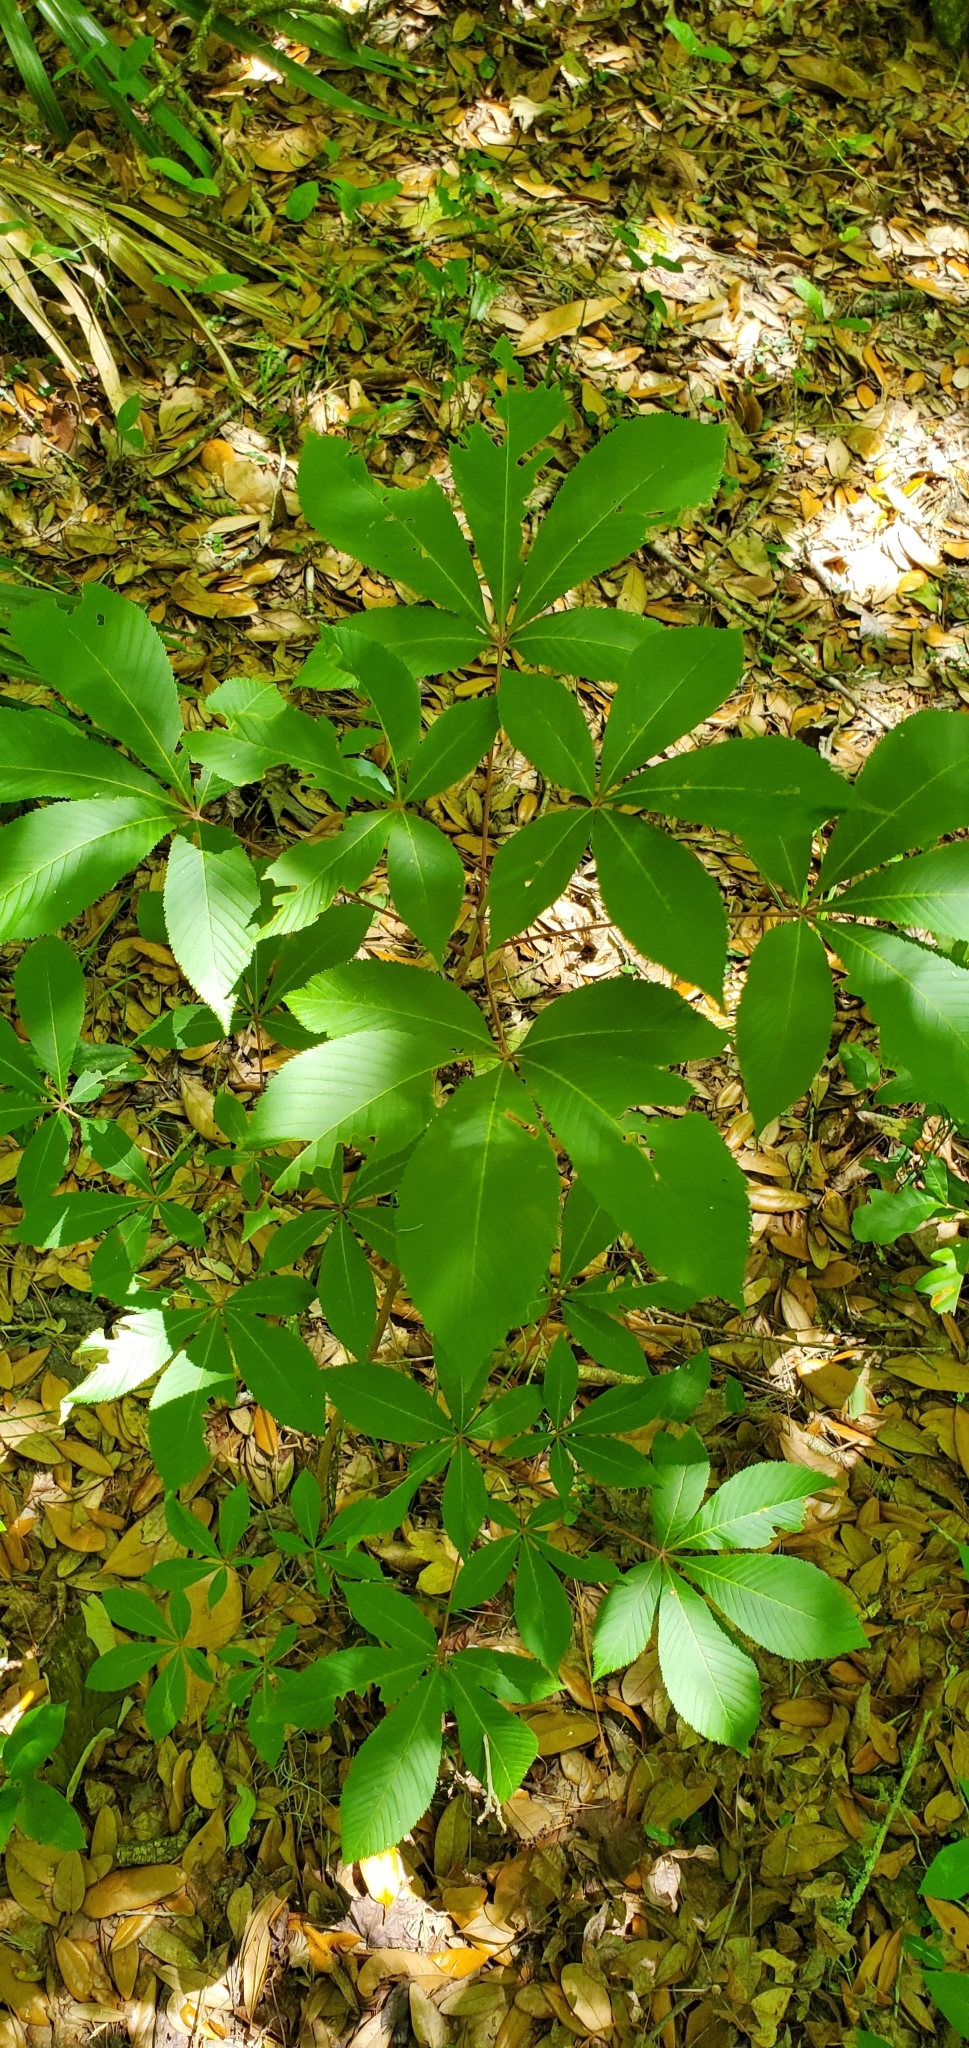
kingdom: Plantae
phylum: Tracheophyta
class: Magnoliopsida
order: Sapindales
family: Sapindaceae
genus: Aesculus
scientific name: Aesculus pavia
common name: Red buckeye
